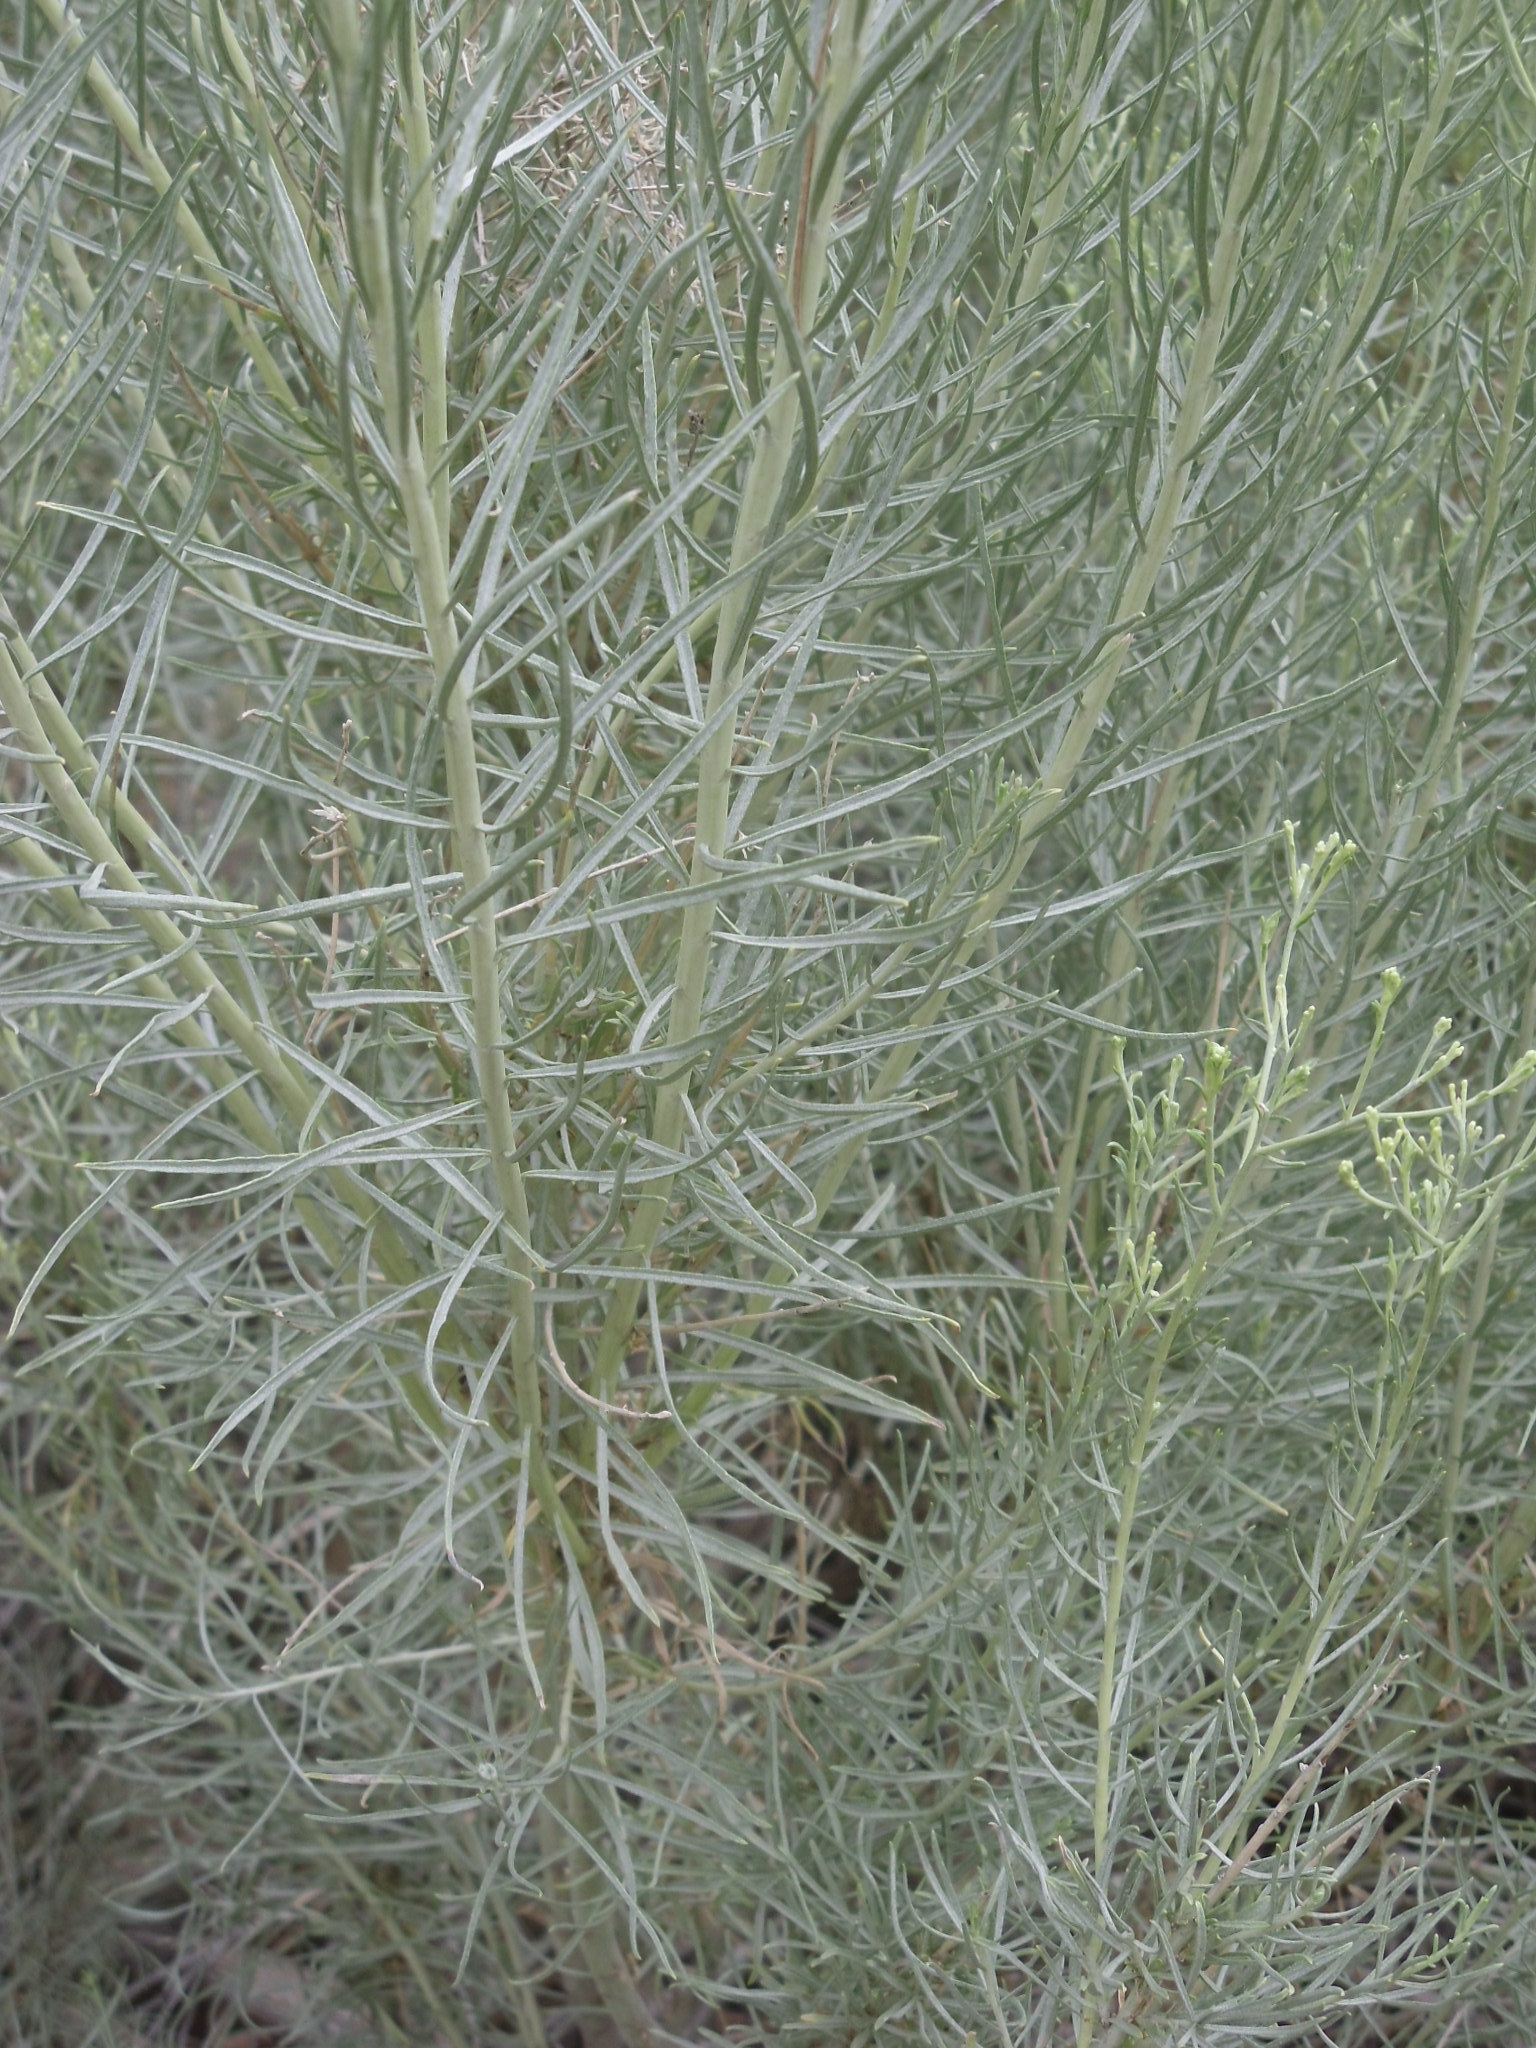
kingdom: Plantae
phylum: Tracheophyta
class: Magnoliopsida
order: Asterales
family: Asteraceae
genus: Ericameria
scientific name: Ericameria nauseosa
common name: Rubber rabbitbrush
